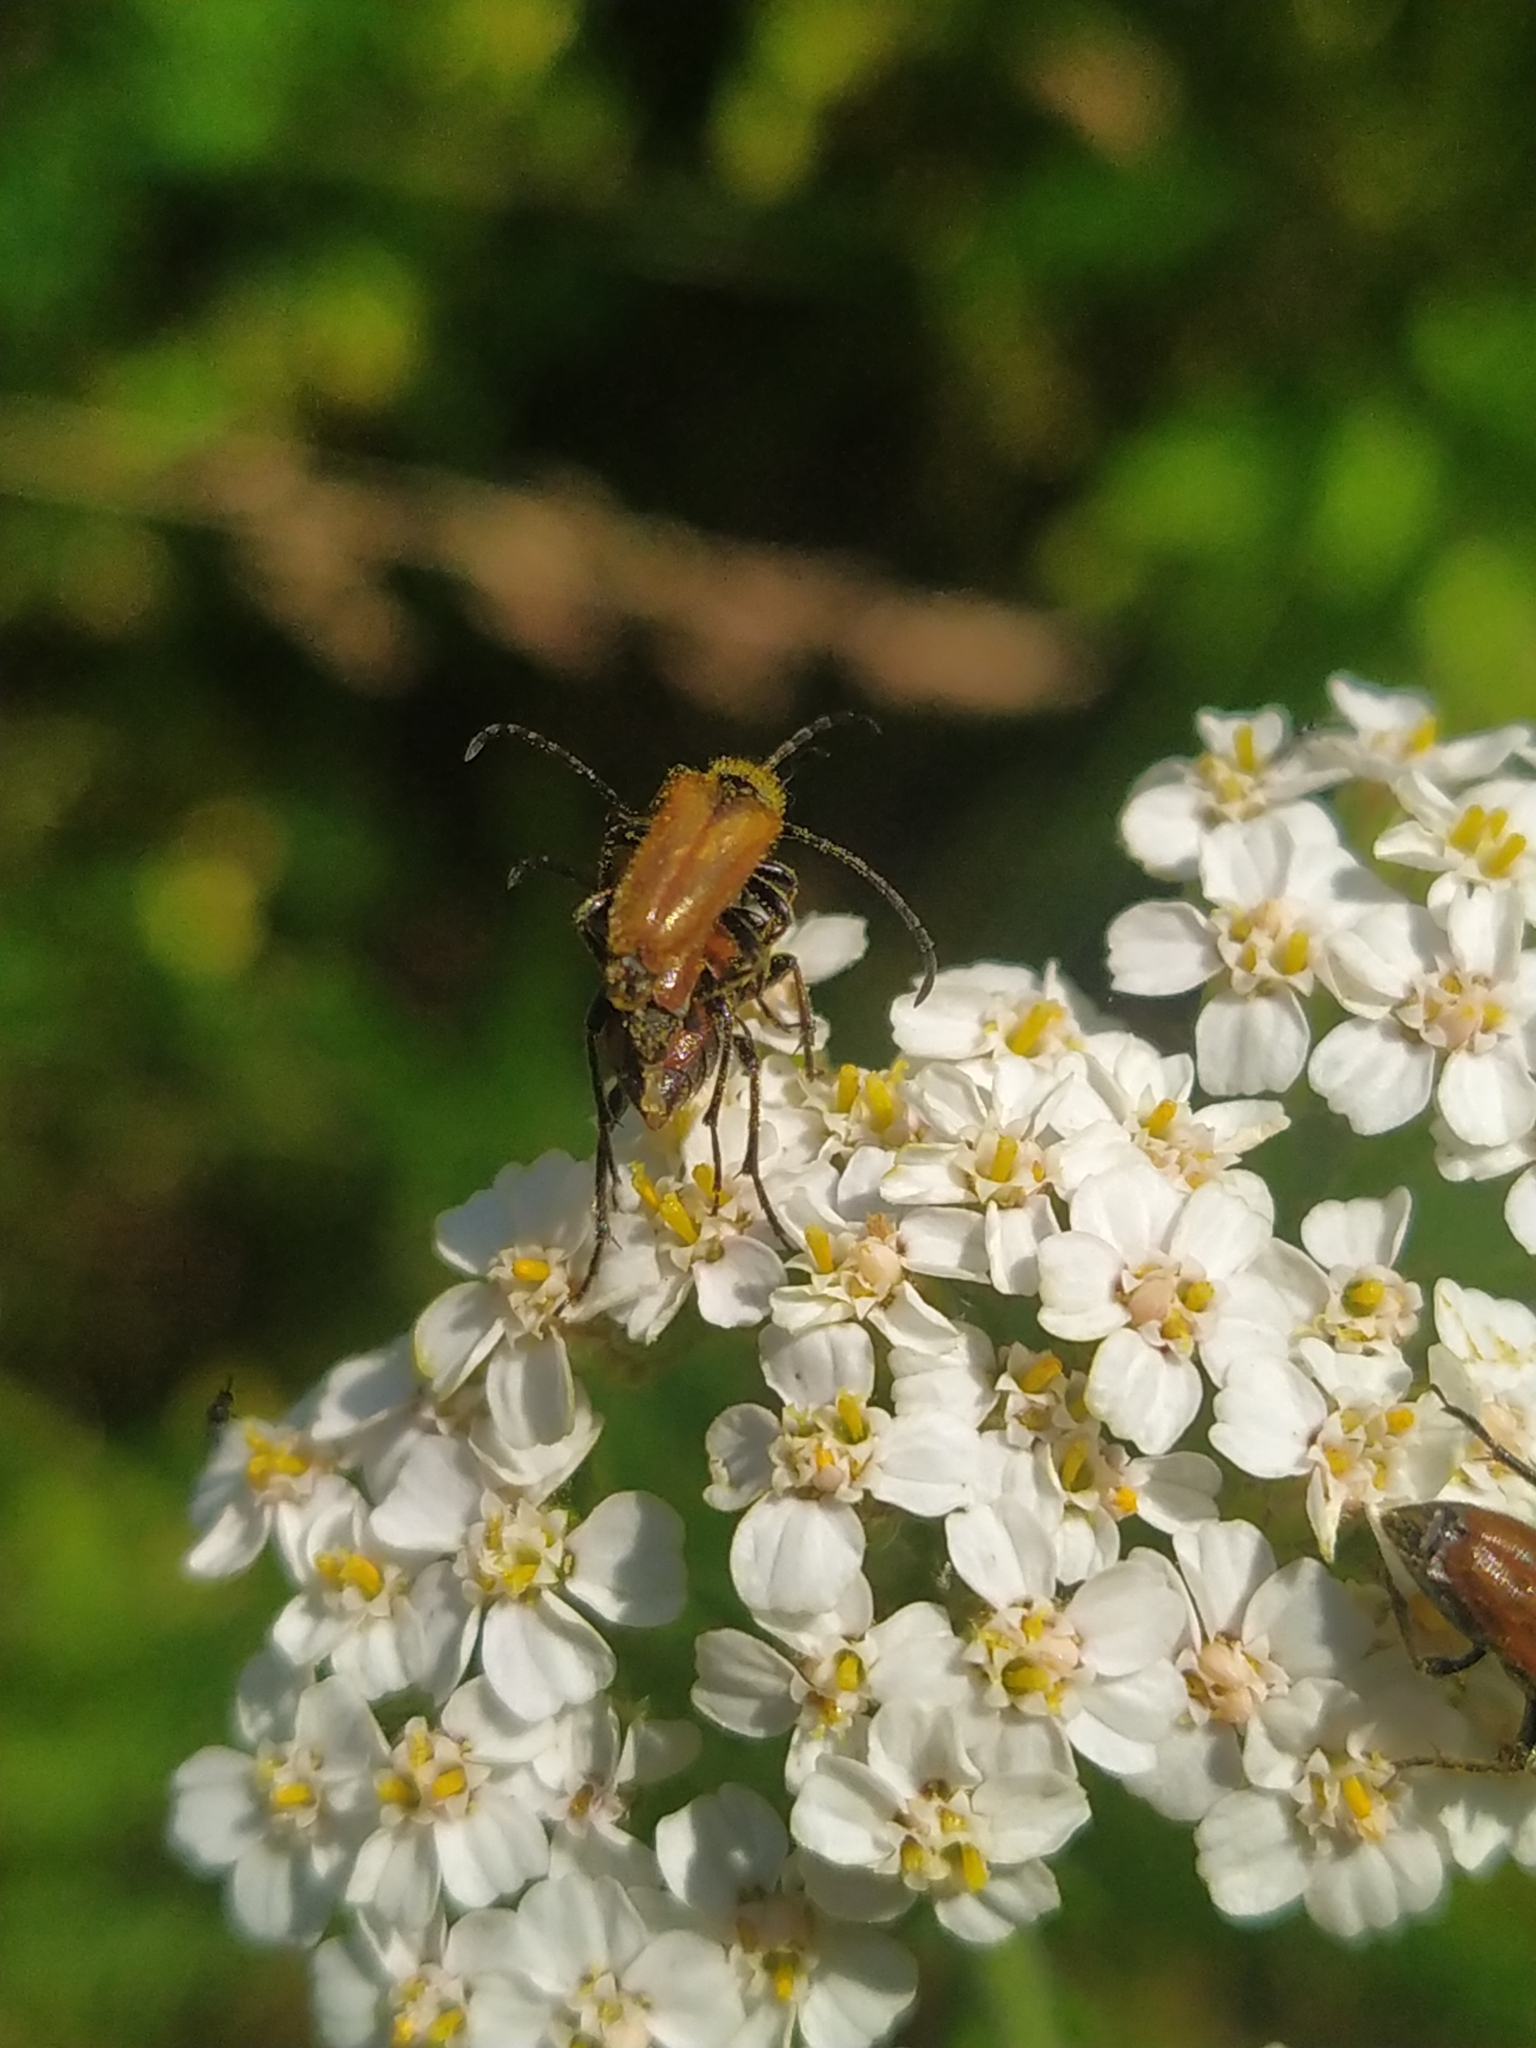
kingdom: Animalia
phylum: Arthropoda
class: Insecta
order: Coleoptera
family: Cerambycidae
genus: Pseudovadonia
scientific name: Pseudovadonia livida
